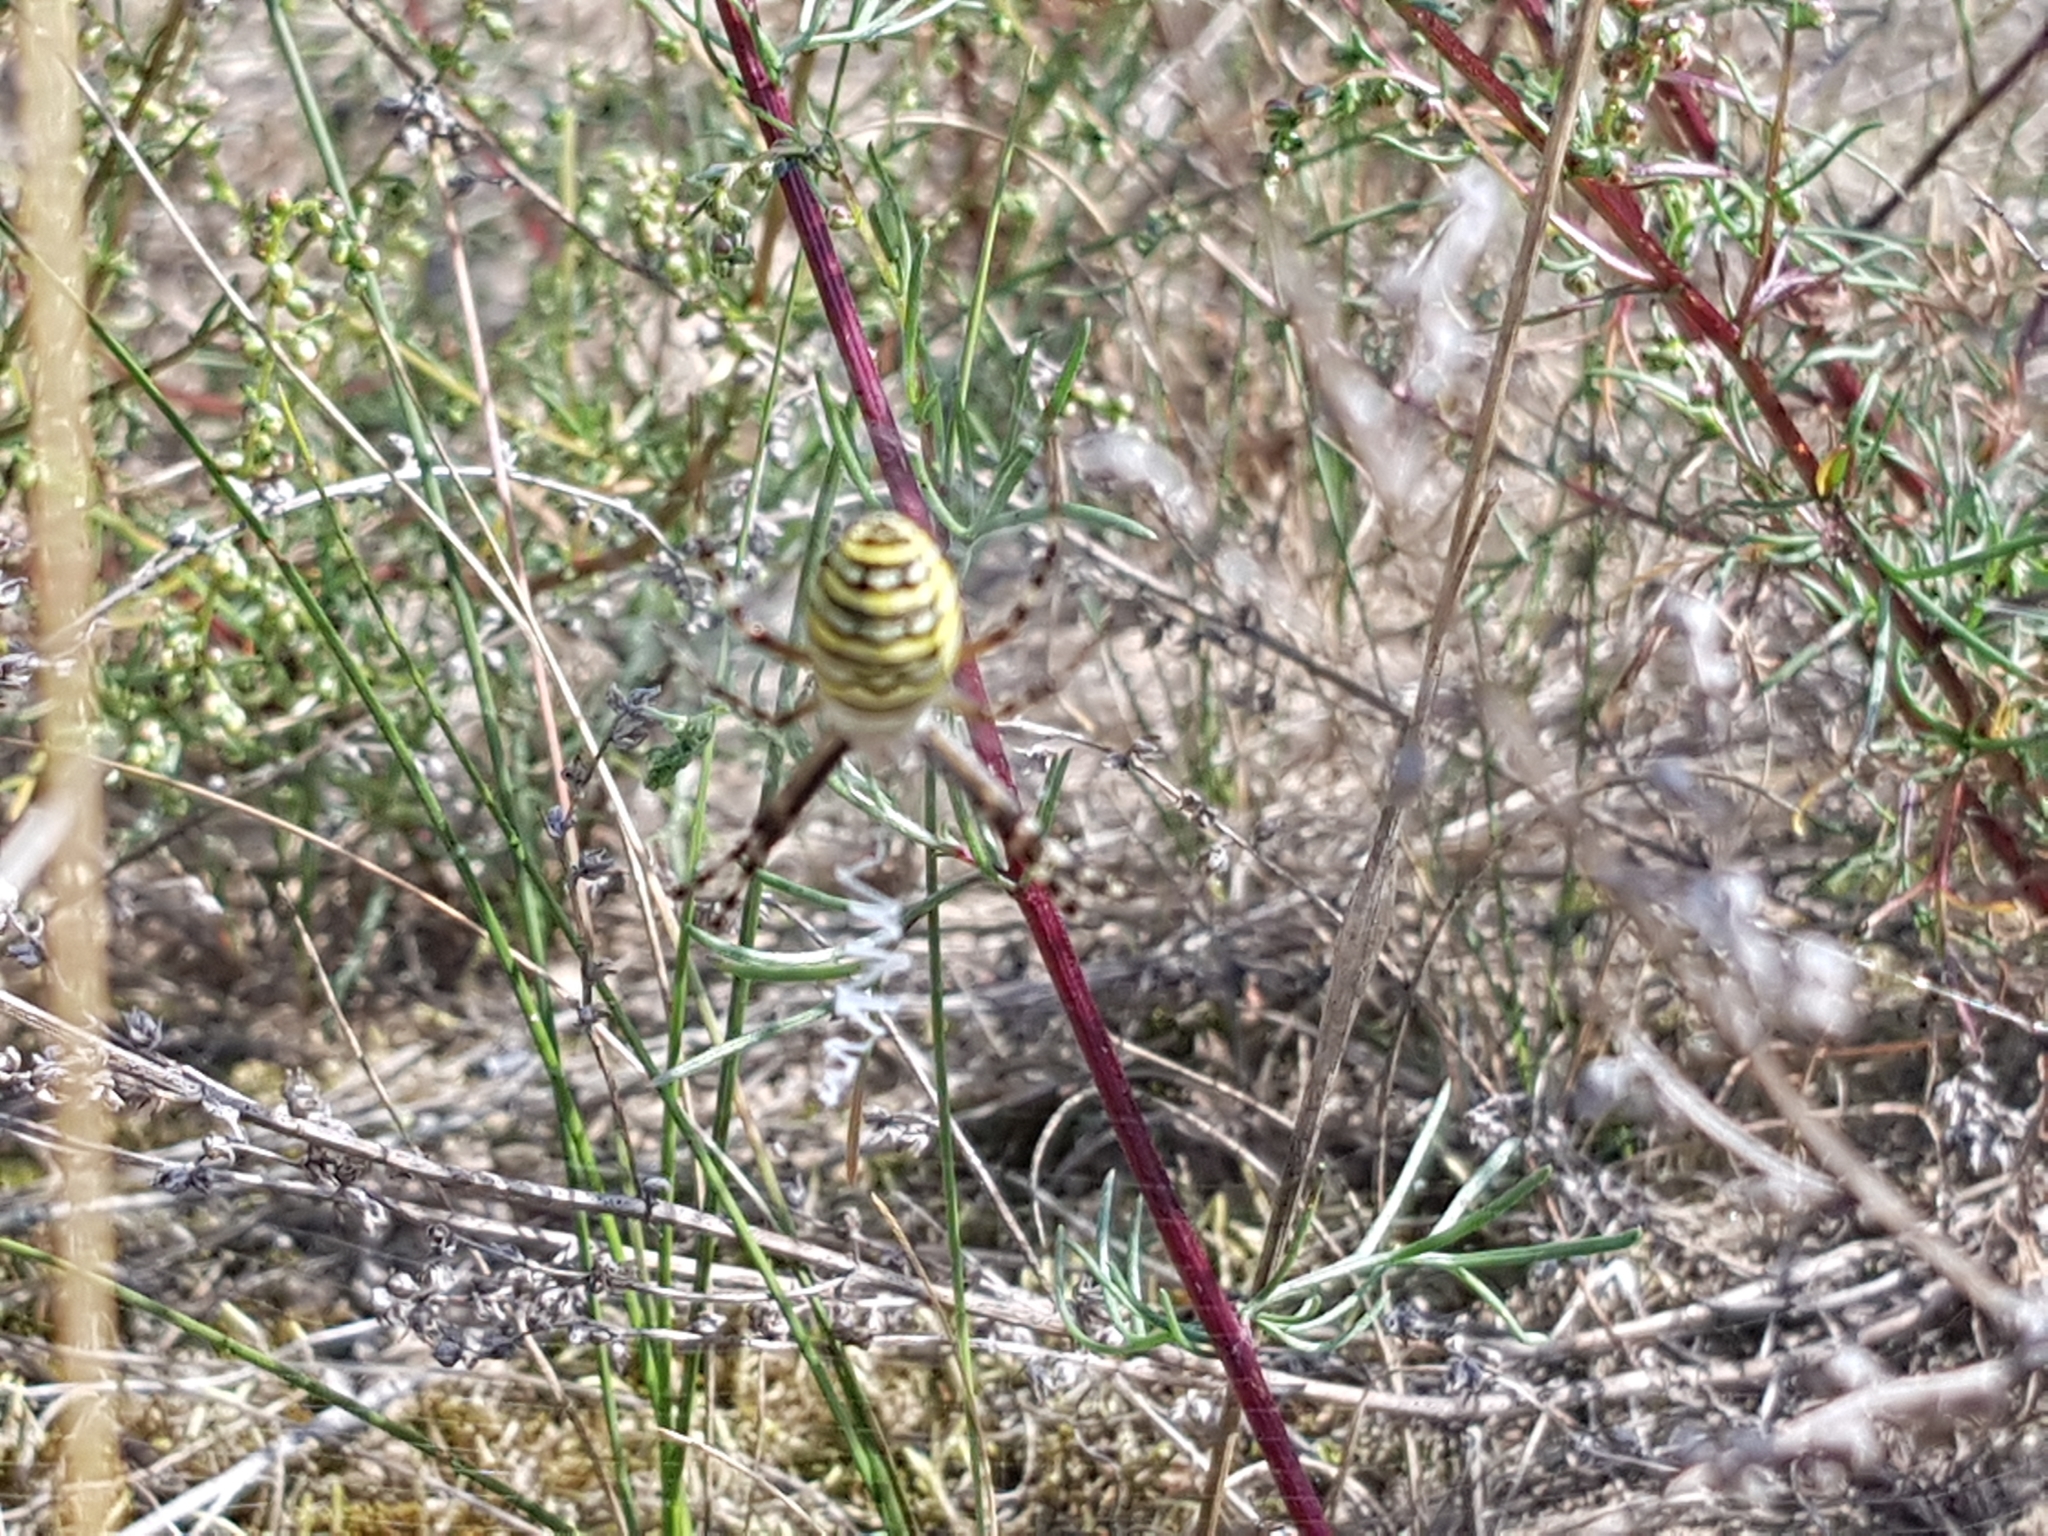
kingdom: Animalia
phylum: Arthropoda
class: Arachnida
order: Araneae
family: Araneidae
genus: Argiope
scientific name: Argiope bruennichi
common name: Wasp spider
